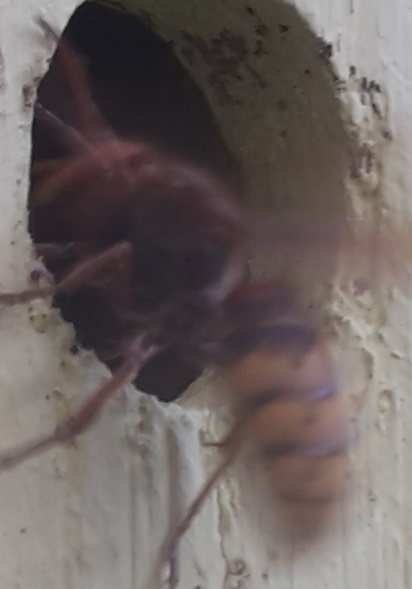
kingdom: Animalia
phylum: Arthropoda
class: Insecta
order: Hymenoptera
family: Vespidae
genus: Vespa
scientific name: Vespa crabro
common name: Hornet
